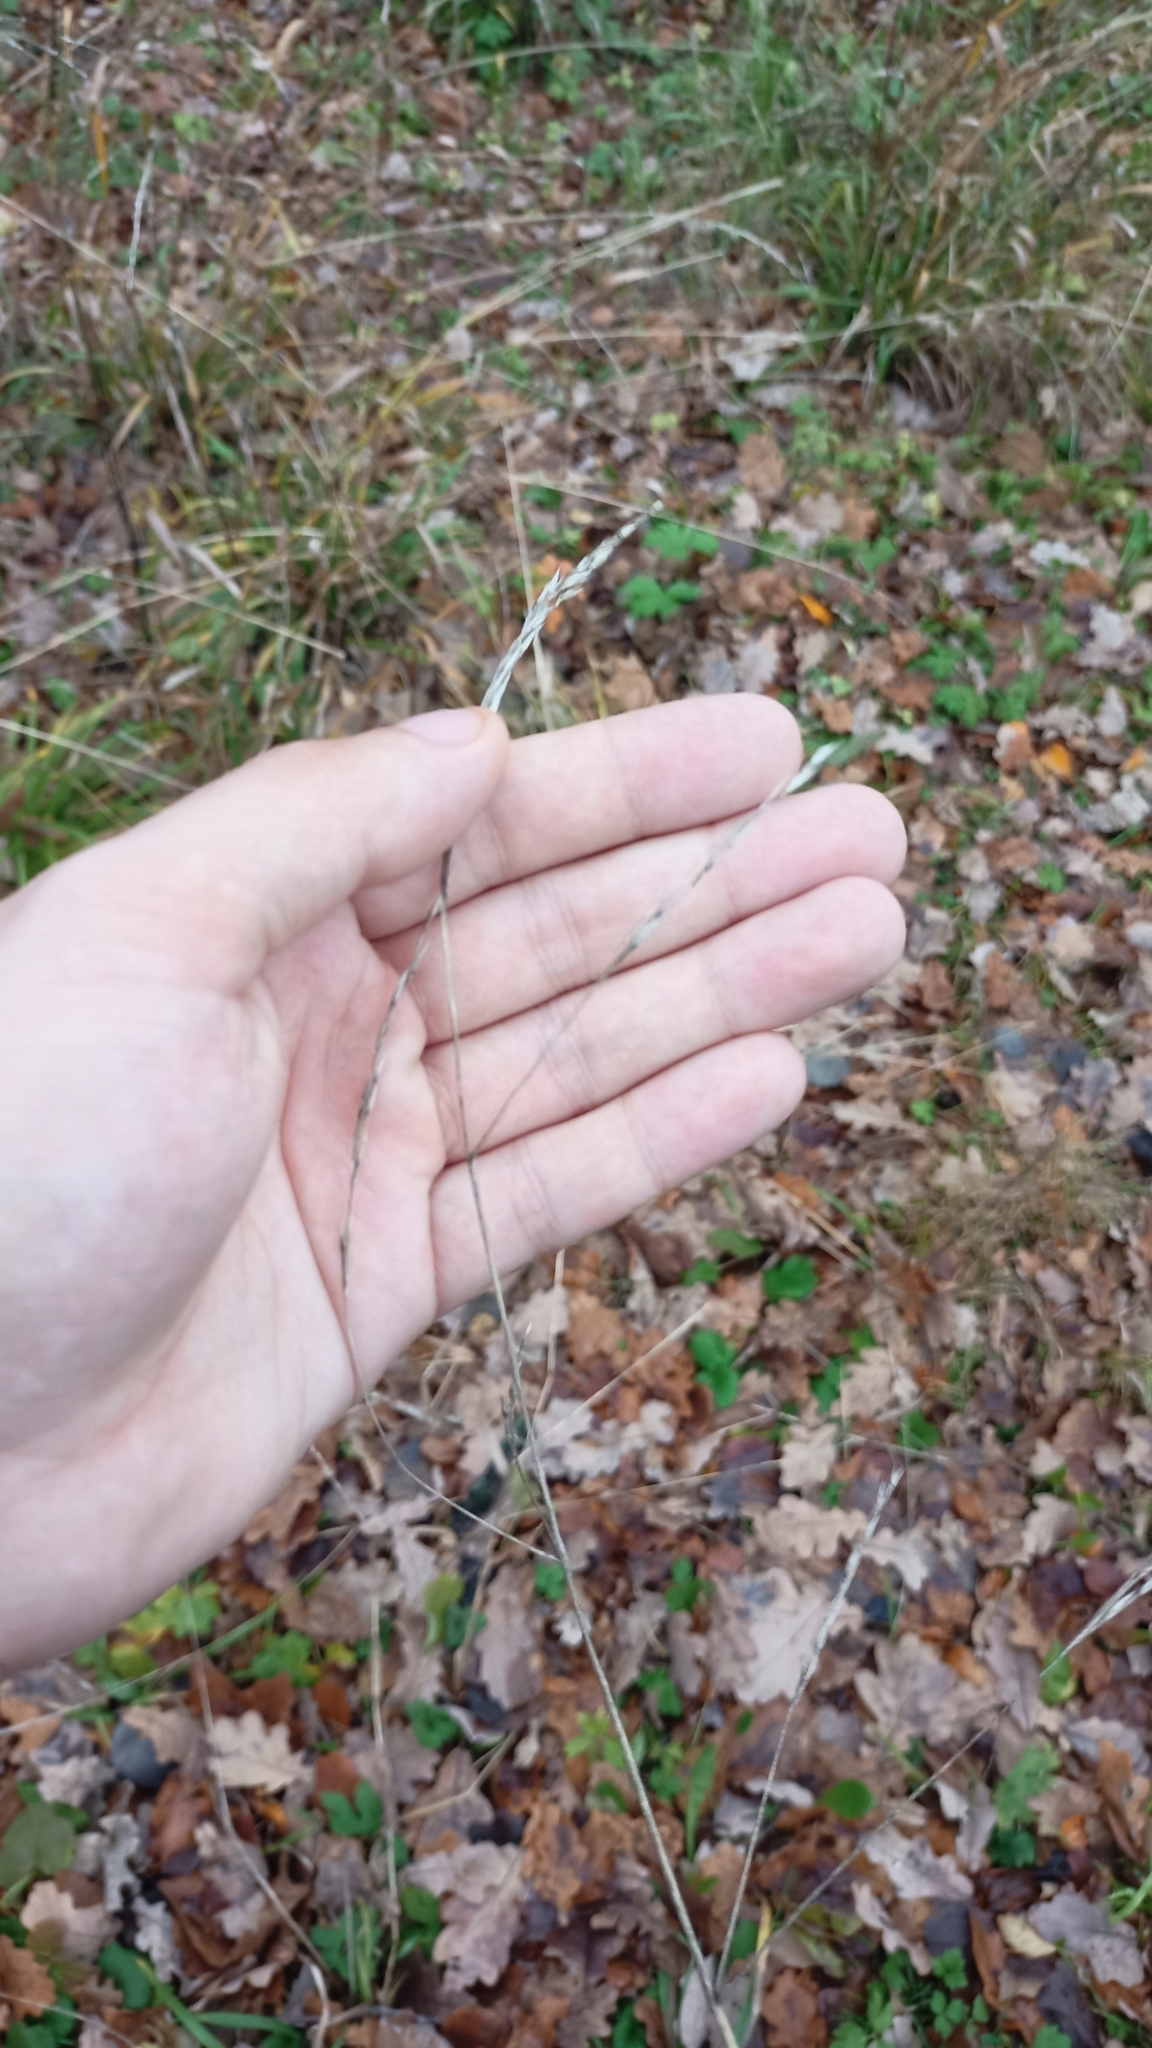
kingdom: Plantae
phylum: Tracheophyta
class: Liliopsida
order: Poales
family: Poaceae
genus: Lolium
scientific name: Lolium giganteum
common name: Giant fescue
